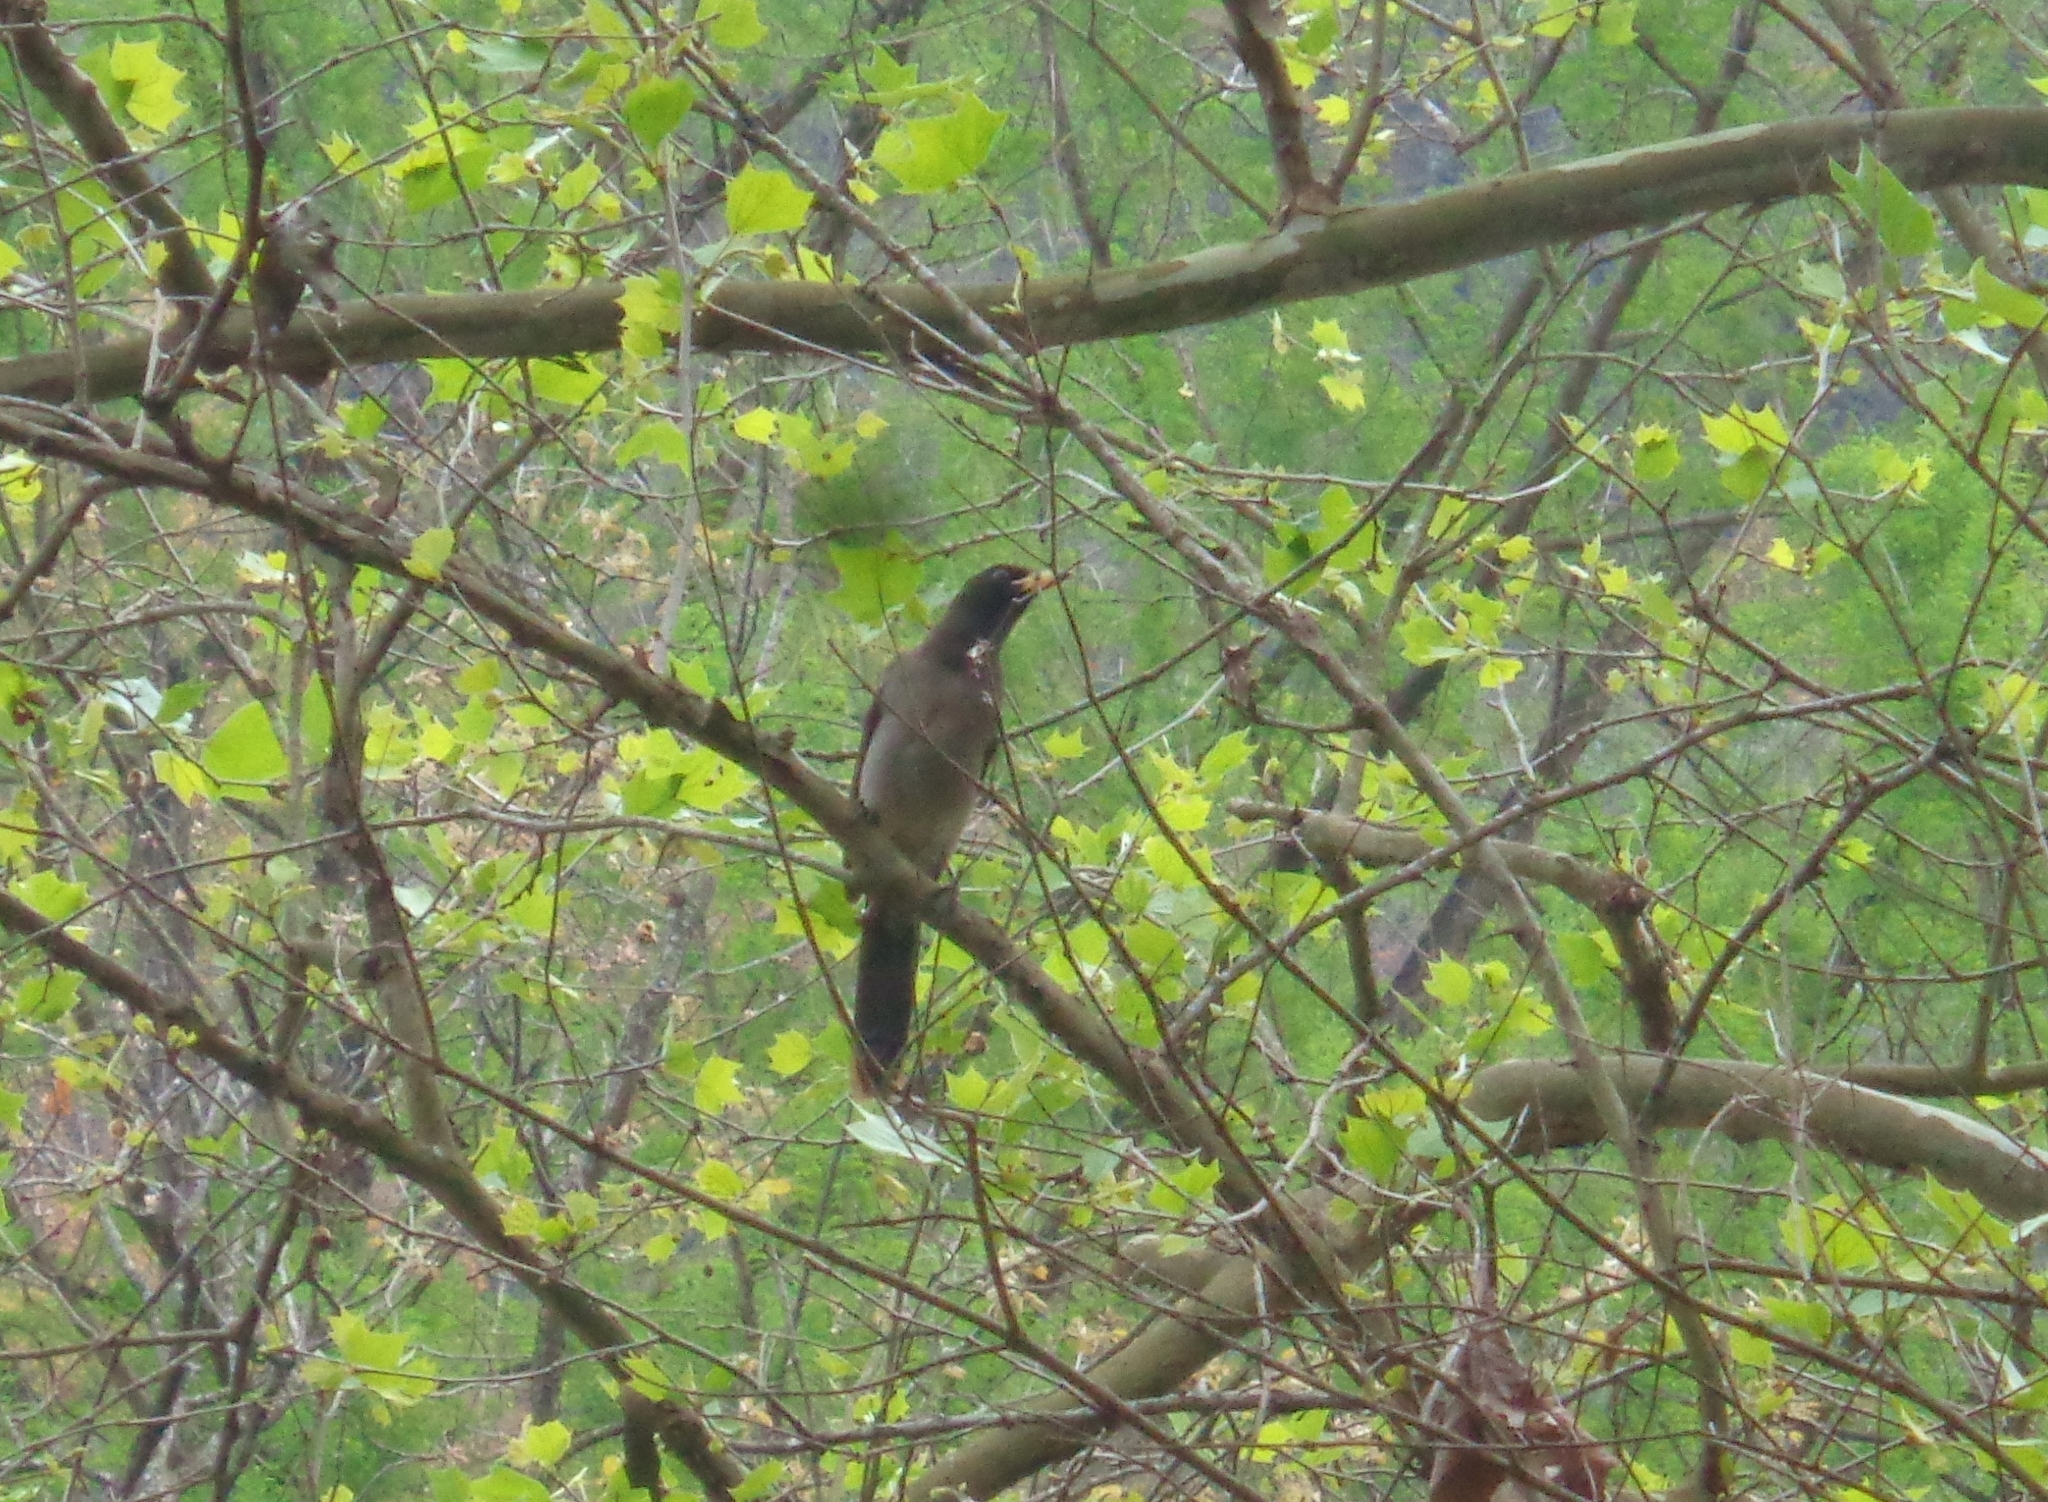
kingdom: Animalia
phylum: Chordata
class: Aves
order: Passeriformes
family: Corvidae
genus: Psilorhinus
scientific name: Psilorhinus morio
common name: Brown jay
